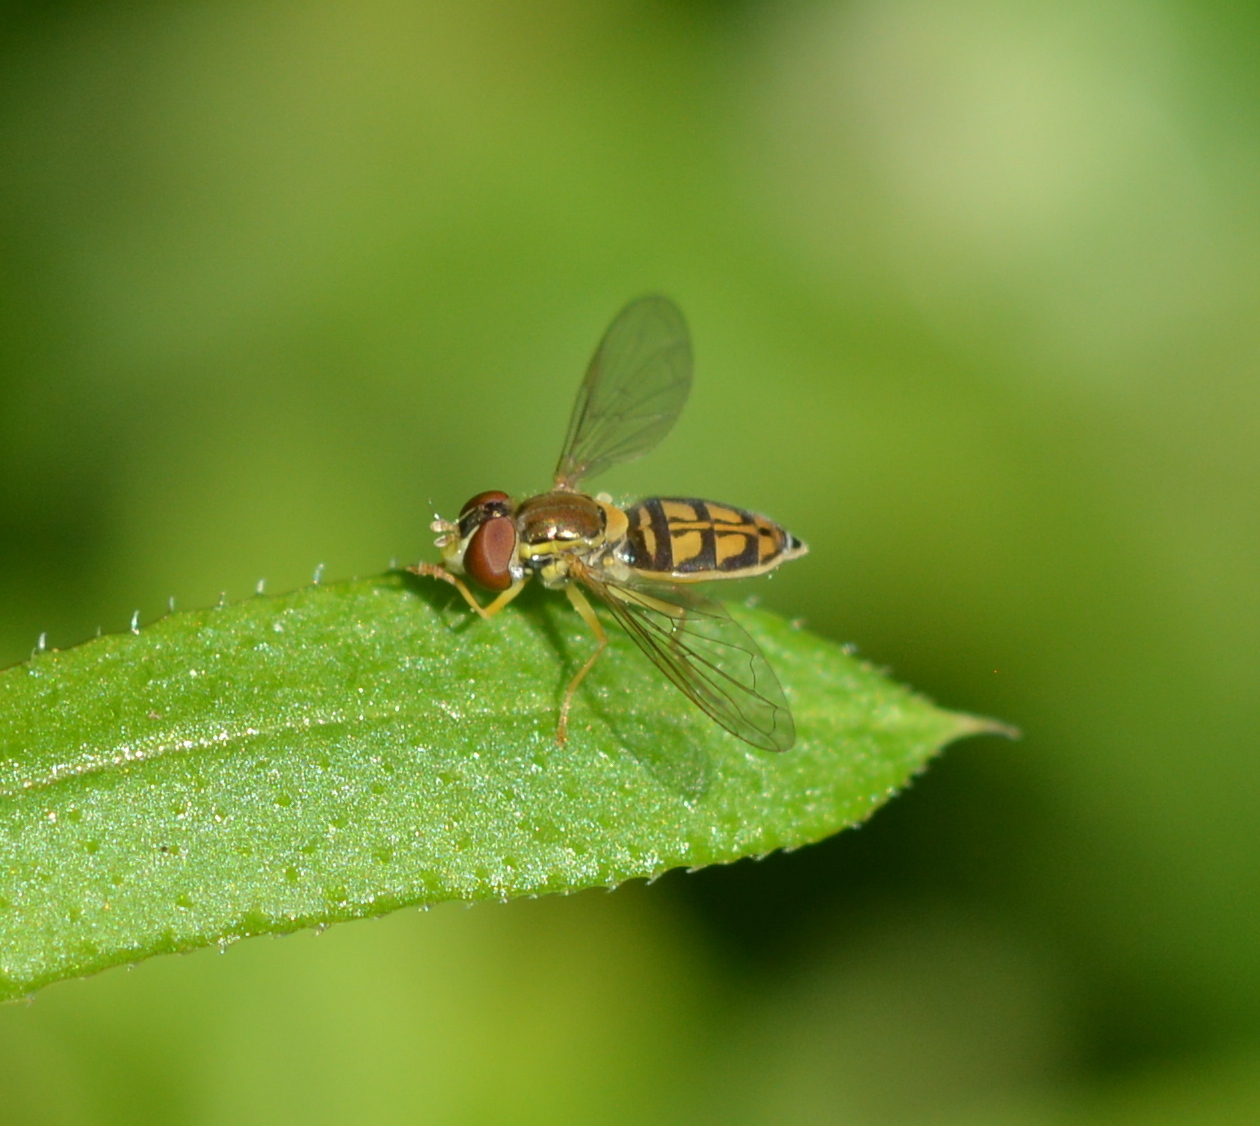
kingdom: Animalia
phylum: Arthropoda
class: Insecta
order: Diptera
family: Syrphidae
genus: Toxomerus
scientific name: Toxomerus marginatus
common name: Syrphid fly
